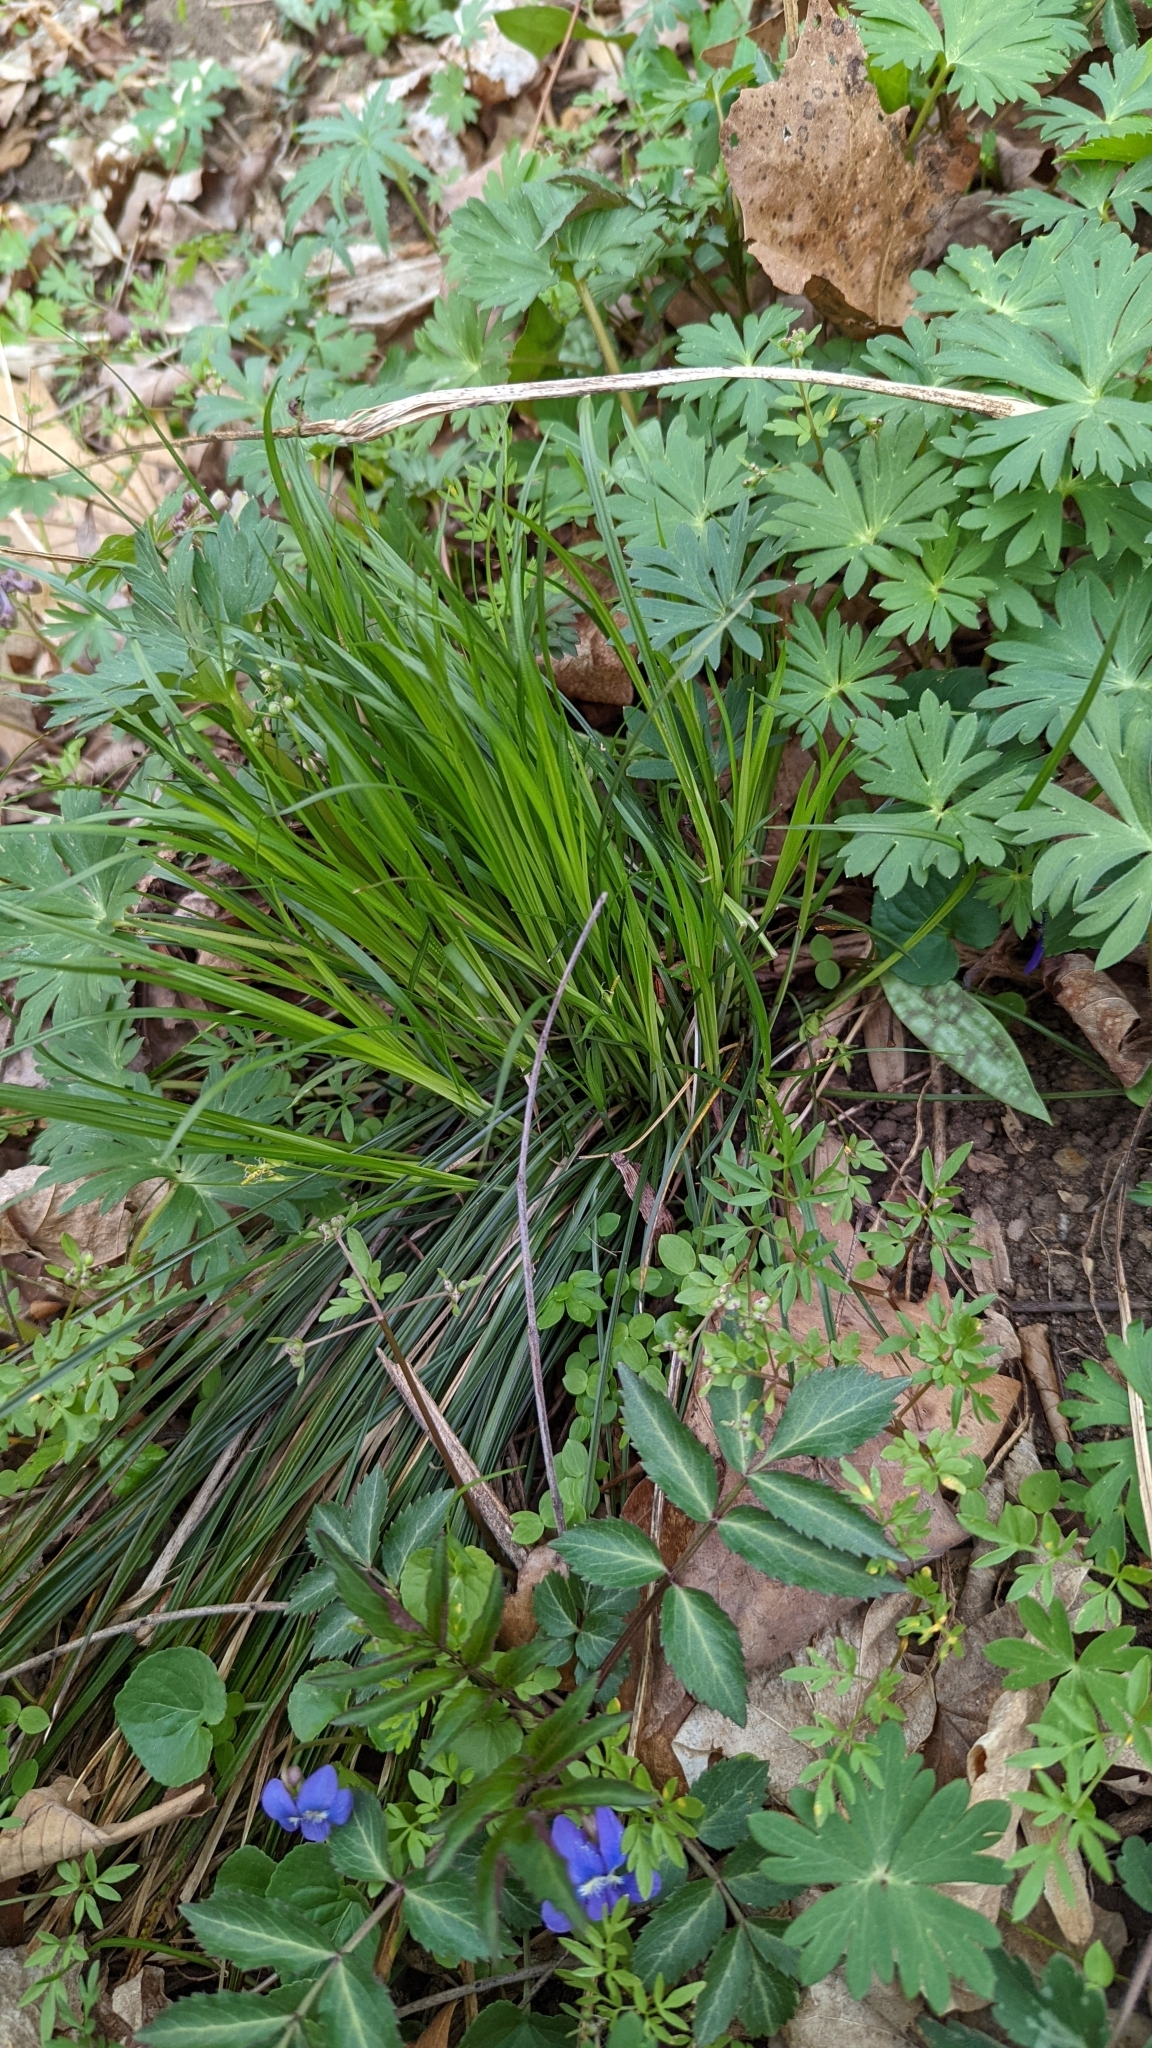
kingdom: Plantae
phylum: Tracheophyta
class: Liliopsida
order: Poales
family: Cyperaceae
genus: Carex
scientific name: Carex jamesii
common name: Grass sedge
